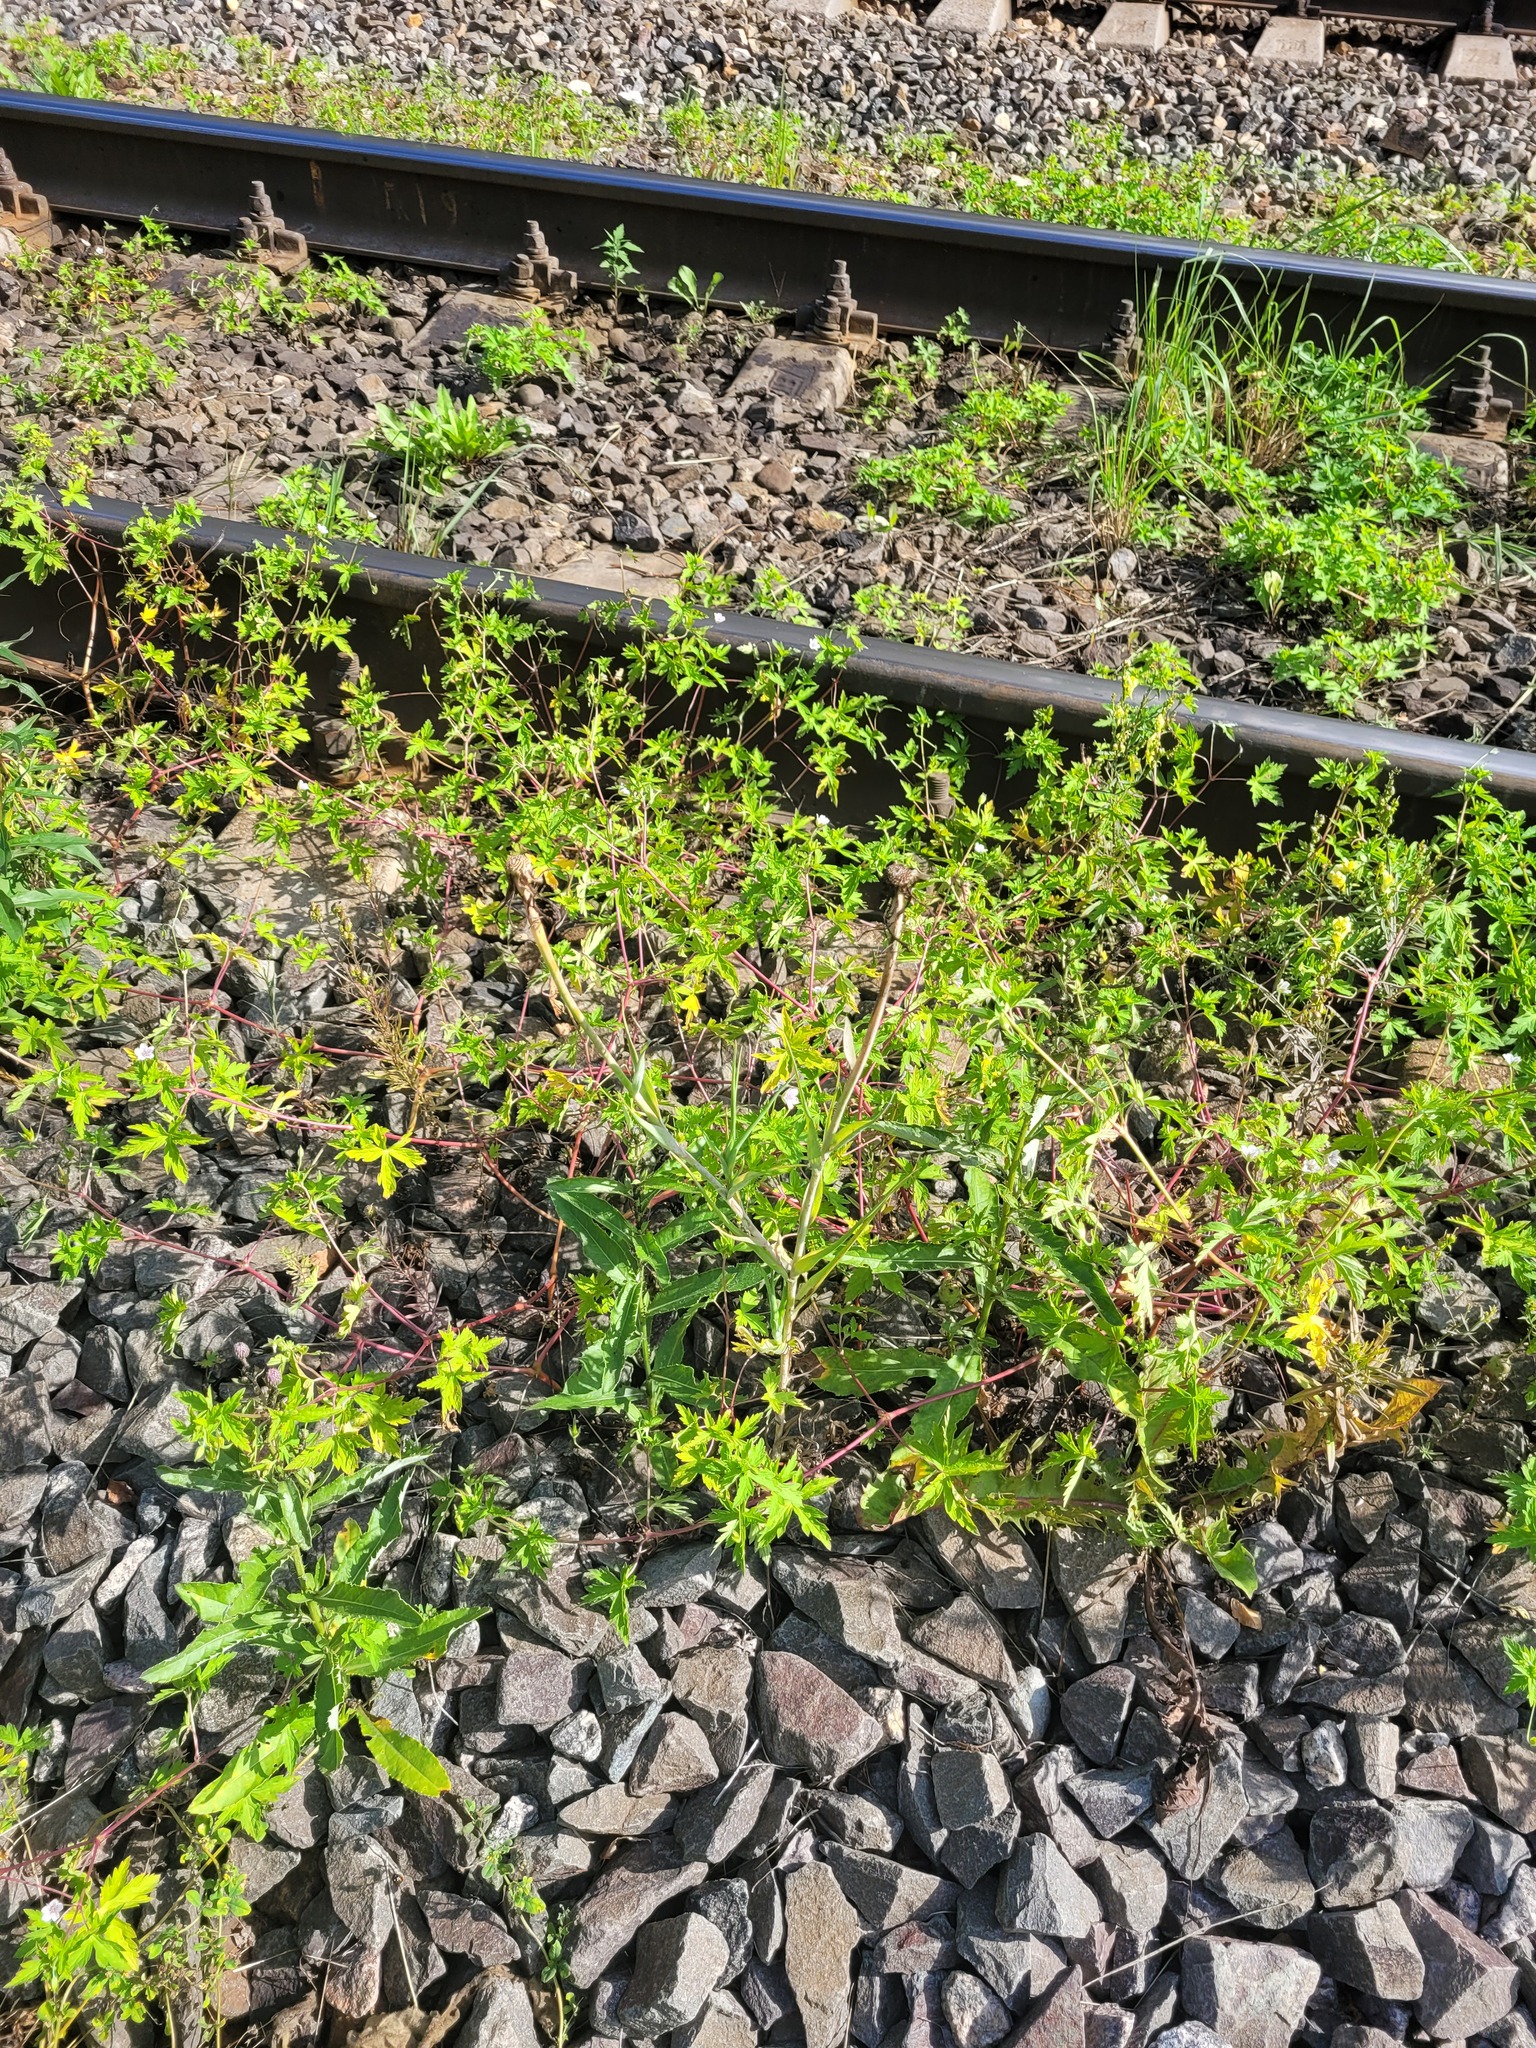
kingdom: Plantae
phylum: Tracheophyta
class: Magnoliopsida
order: Asterales
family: Asteraceae
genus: Tragopogon
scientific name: Tragopogon dubius
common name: Yellow salsify
